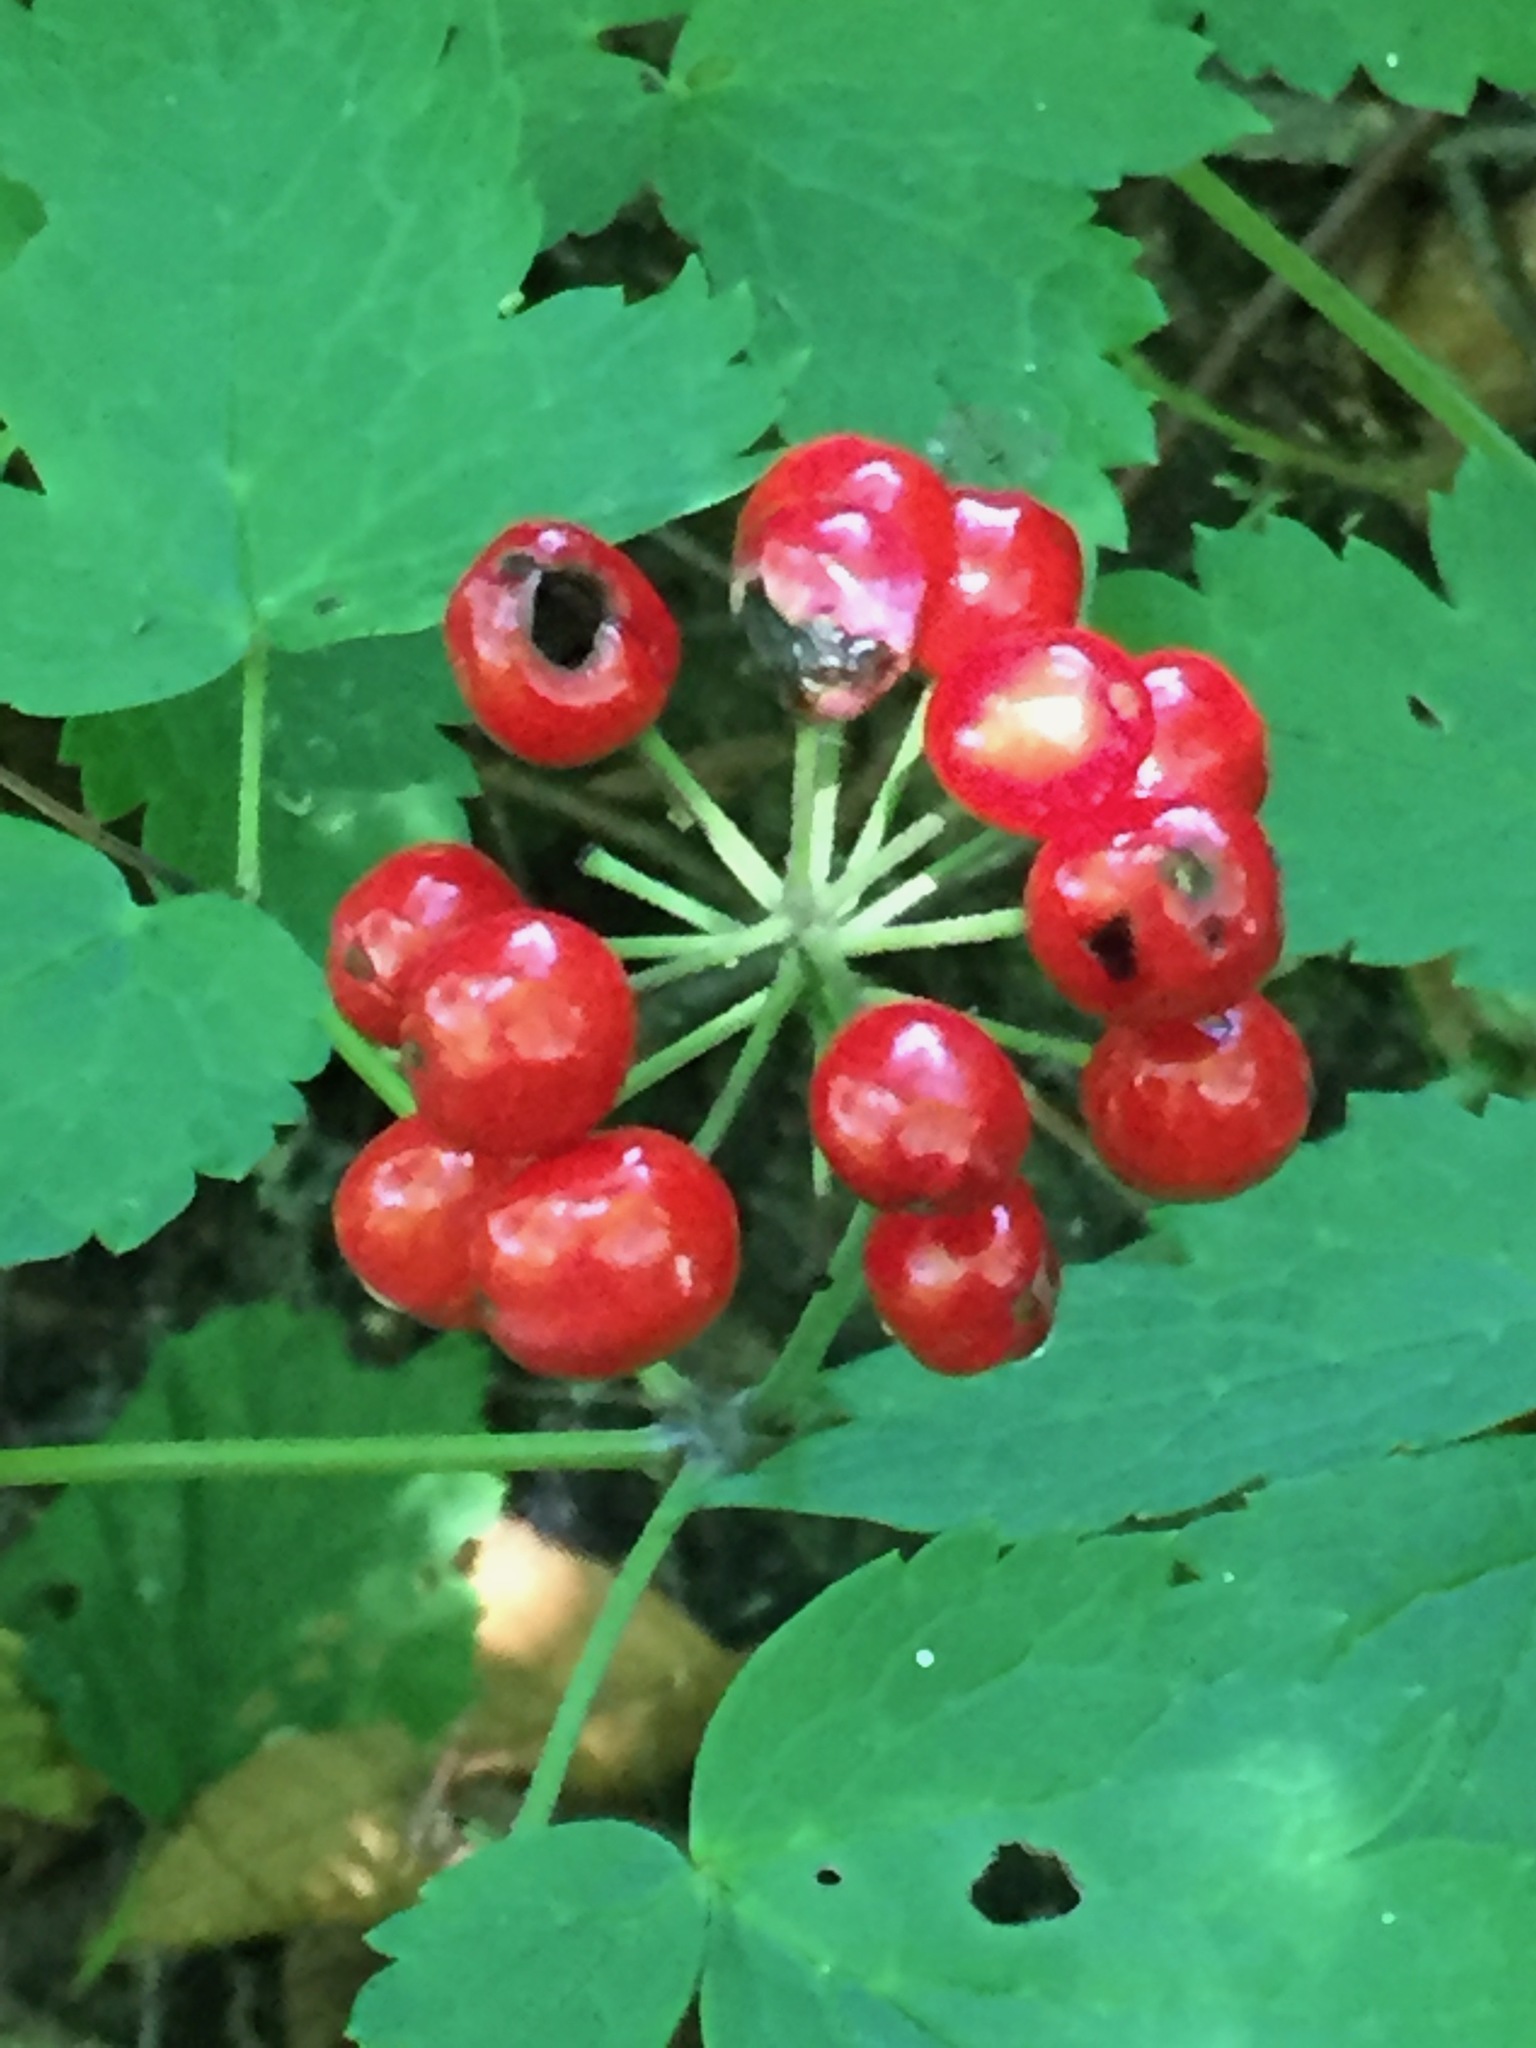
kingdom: Plantae
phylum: Tracheophyta
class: Magnoliopsida
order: Ranunculales
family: Ranunculaceae
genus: Actaea
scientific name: Actaea rubra
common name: Red baneberry
